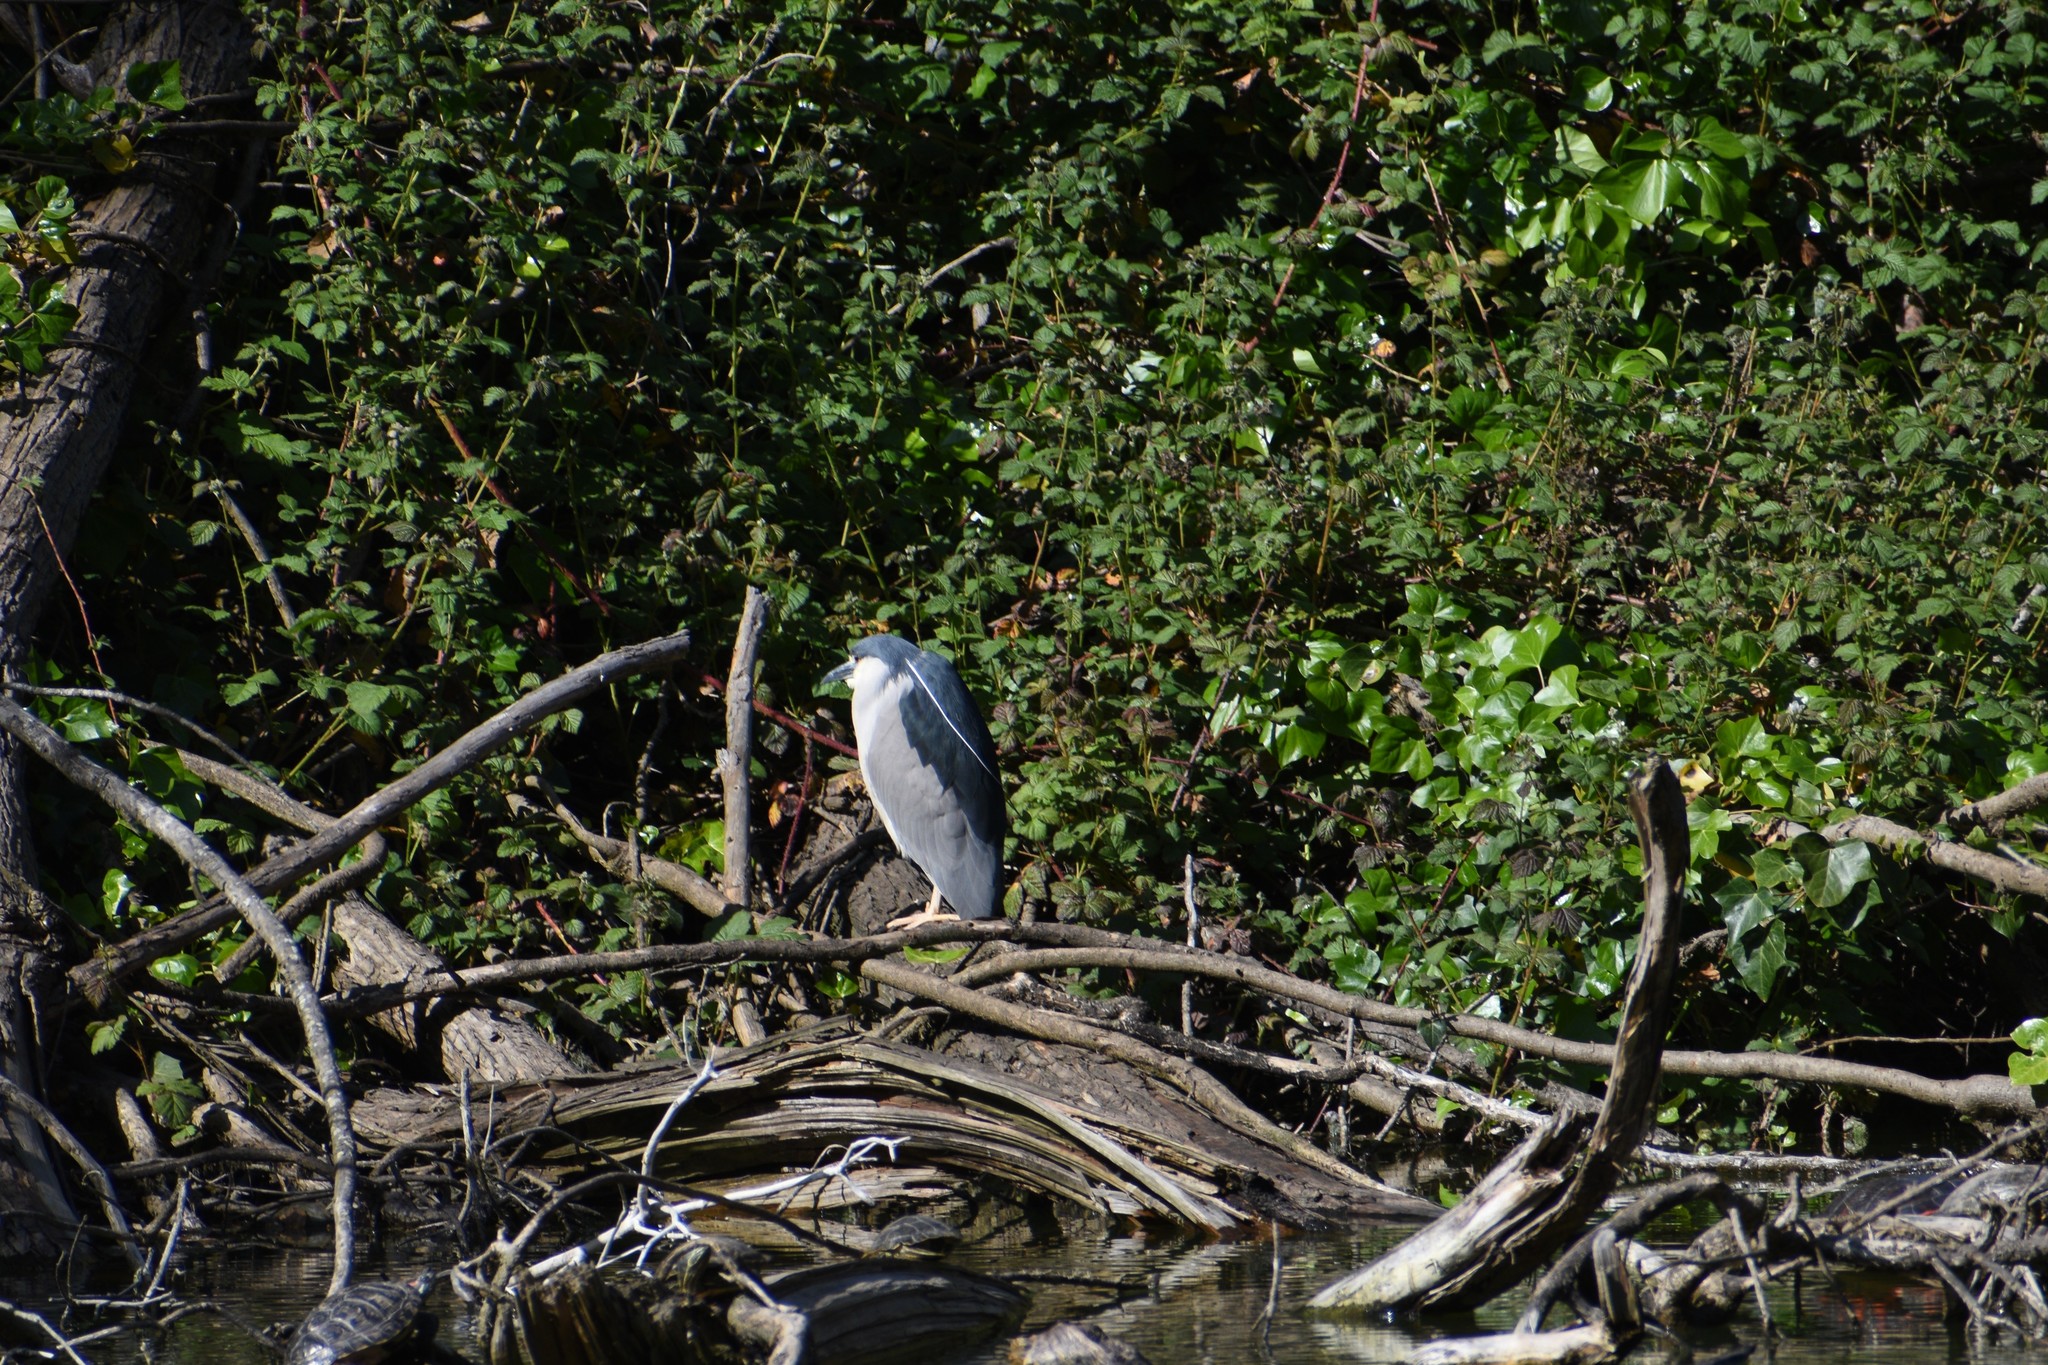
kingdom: Animalia
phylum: Chordata
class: Aves
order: Pelecaniformes
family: Ardeidae
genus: Nycticorax
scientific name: Nycticorax nycticorax
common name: Black-crowned night heron
